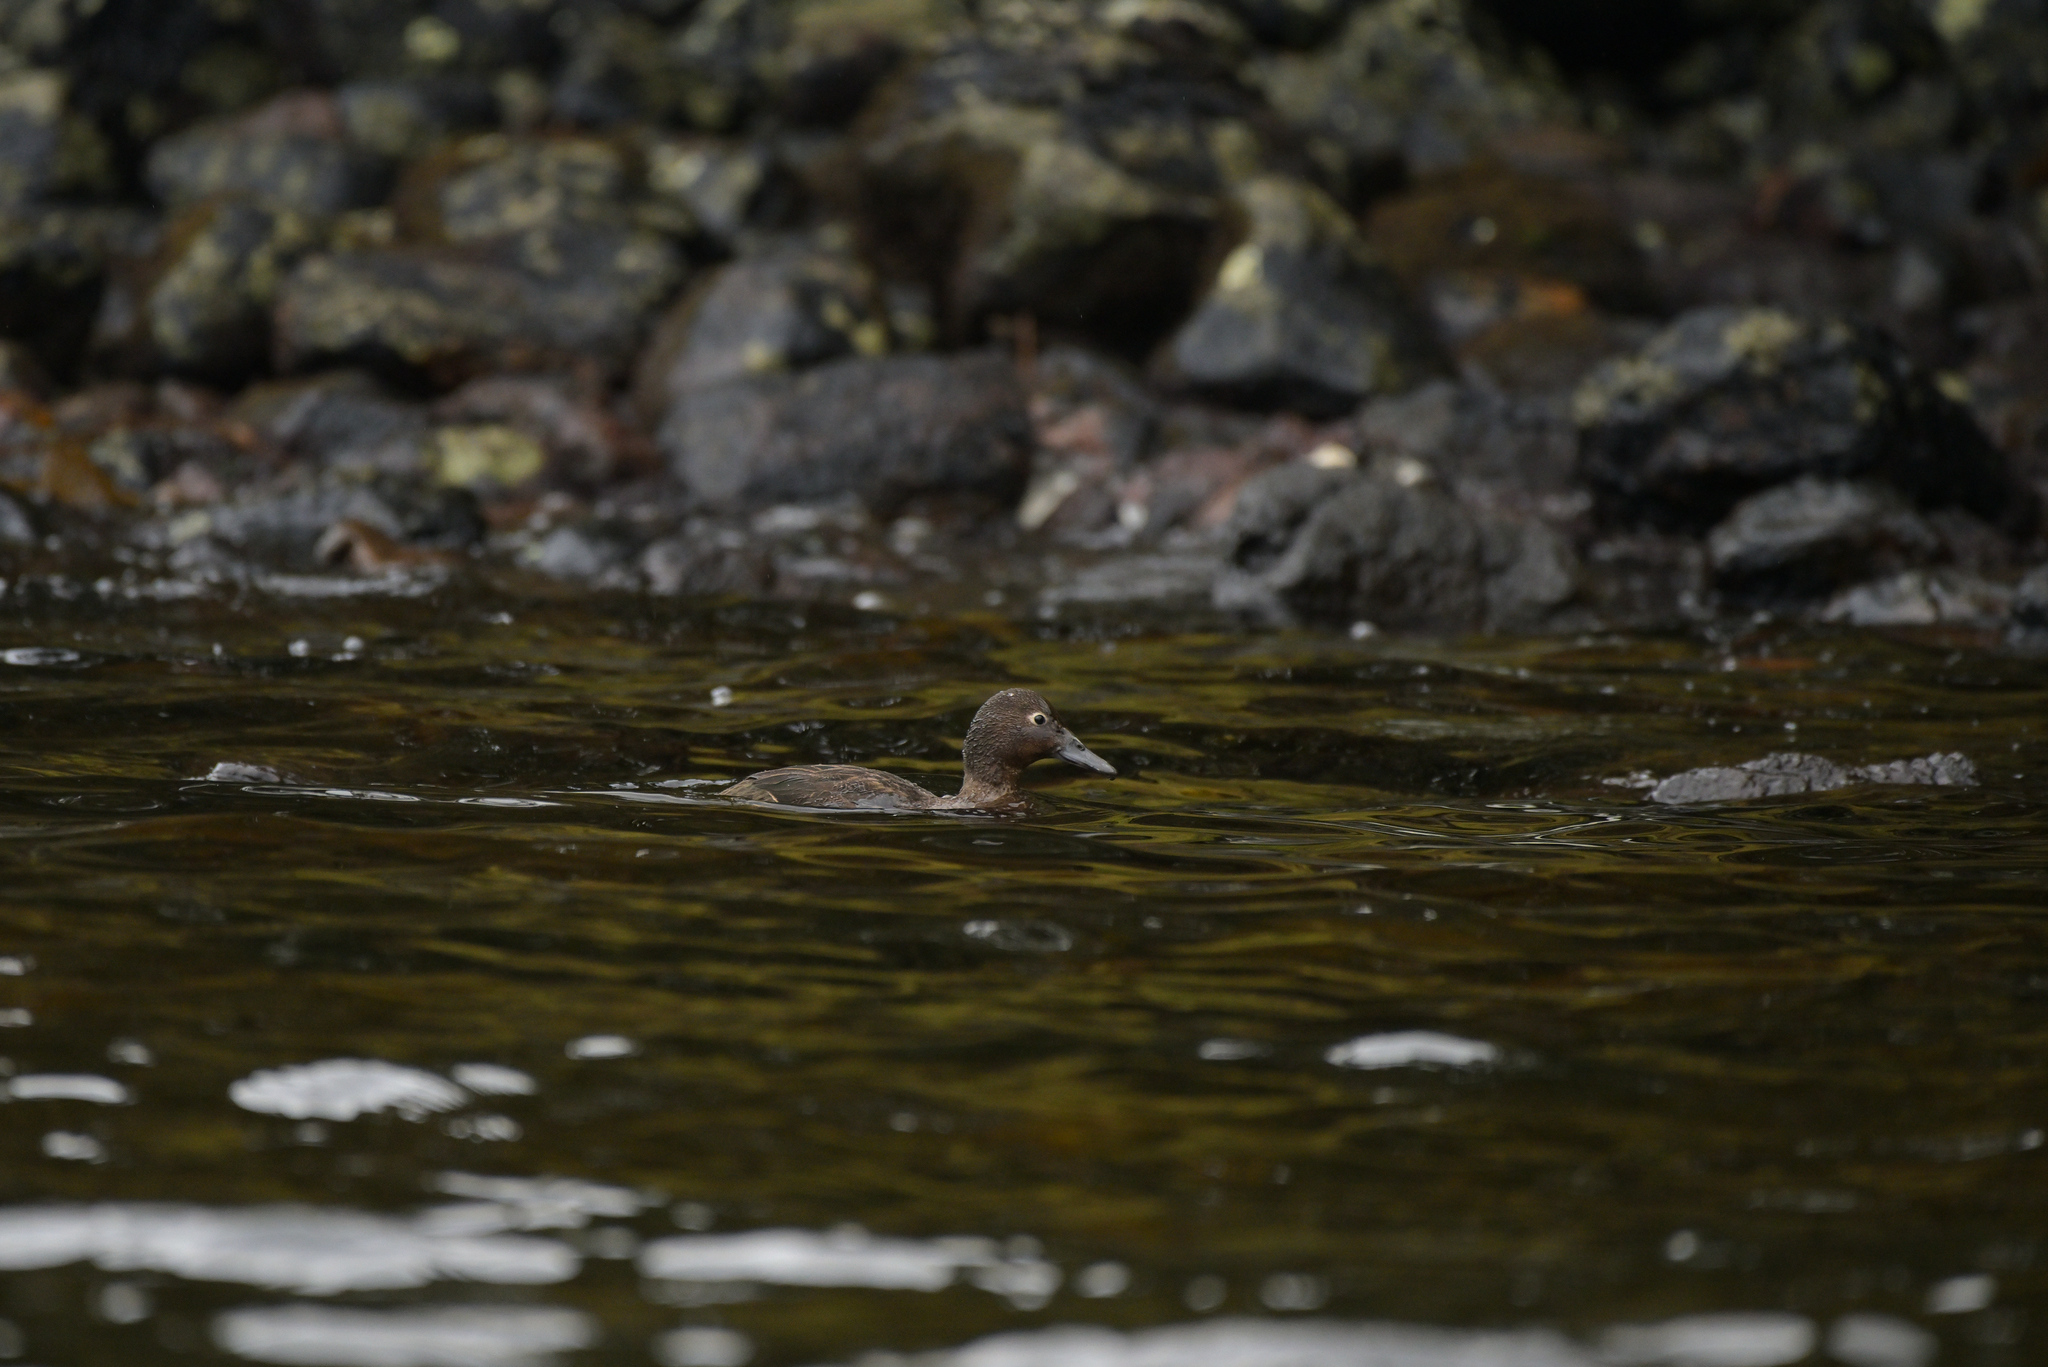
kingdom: Animalia
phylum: Chordata
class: Aves
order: Anseriformes
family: Anatidae
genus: Anas
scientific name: Anas aucklandica
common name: Auckland teal
